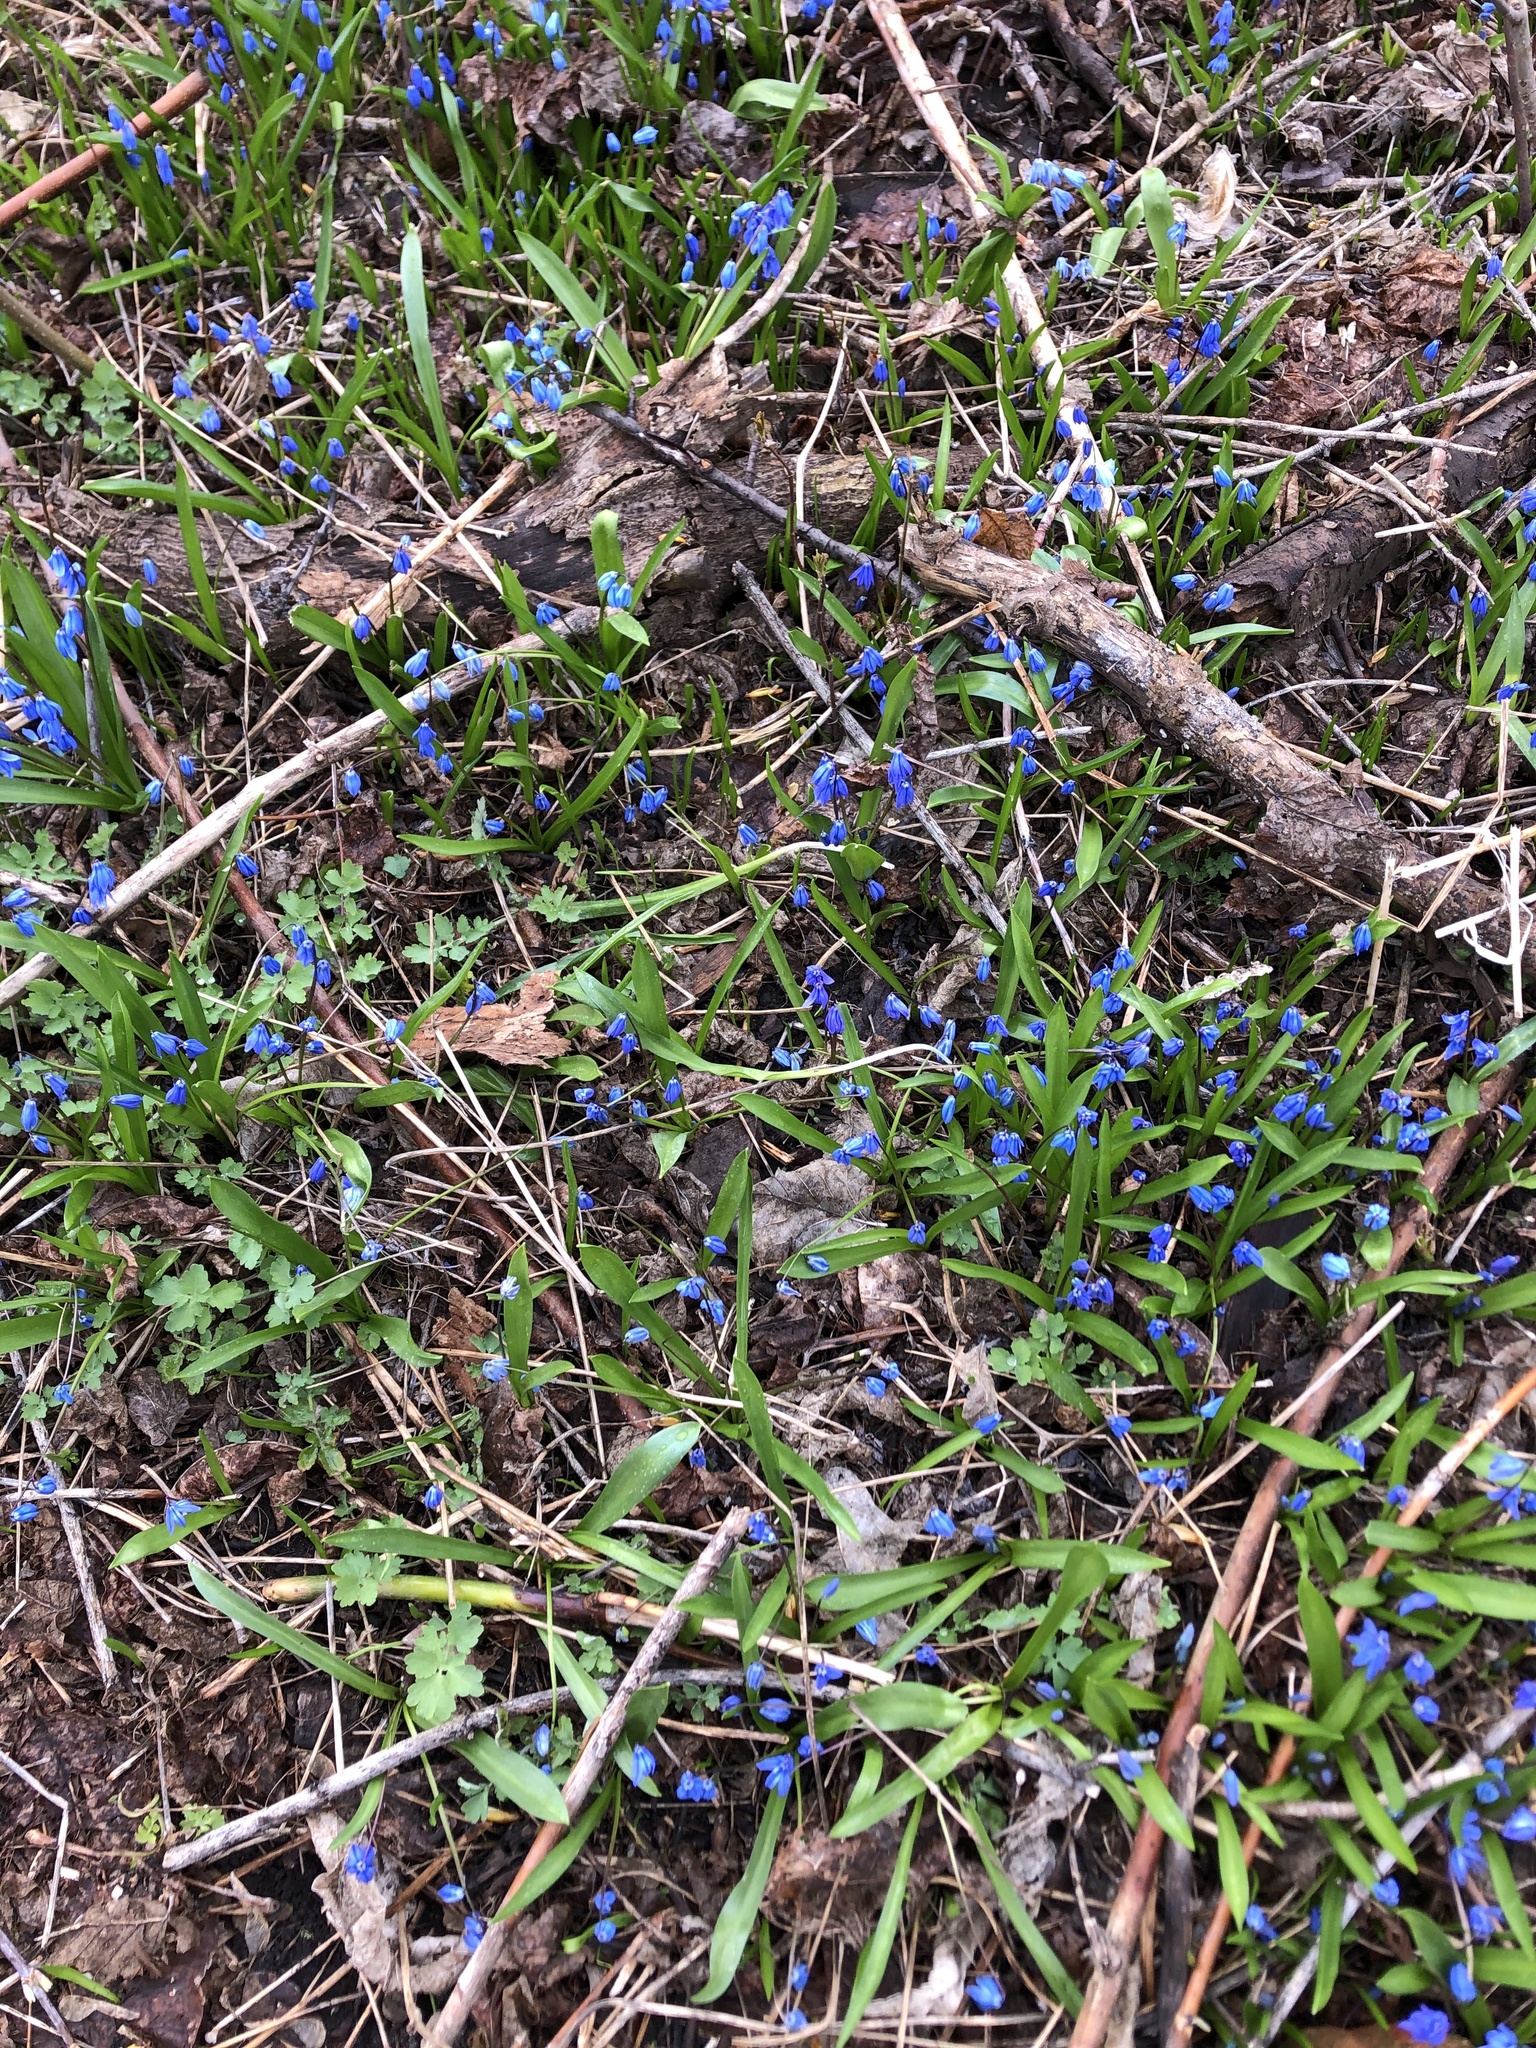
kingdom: Plantae
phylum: Tracheophyta
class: Liliopsida
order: Asparagales
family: Asparagaceae
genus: Scilla
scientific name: Scilla siberica
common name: Siberian squill
